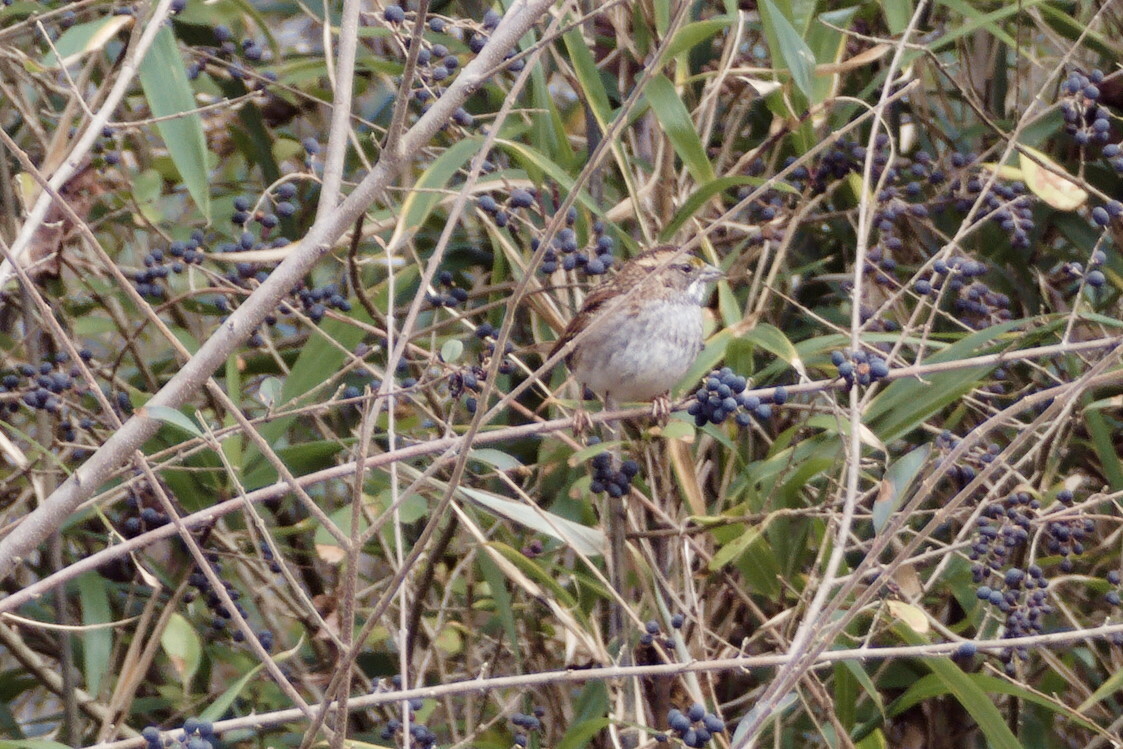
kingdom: Animalia
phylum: Chordata
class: Aves
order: Passeriformes
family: Passerellidae
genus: Zonotrichia
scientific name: Zonotrichia albicollis
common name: White-throated sparrow
